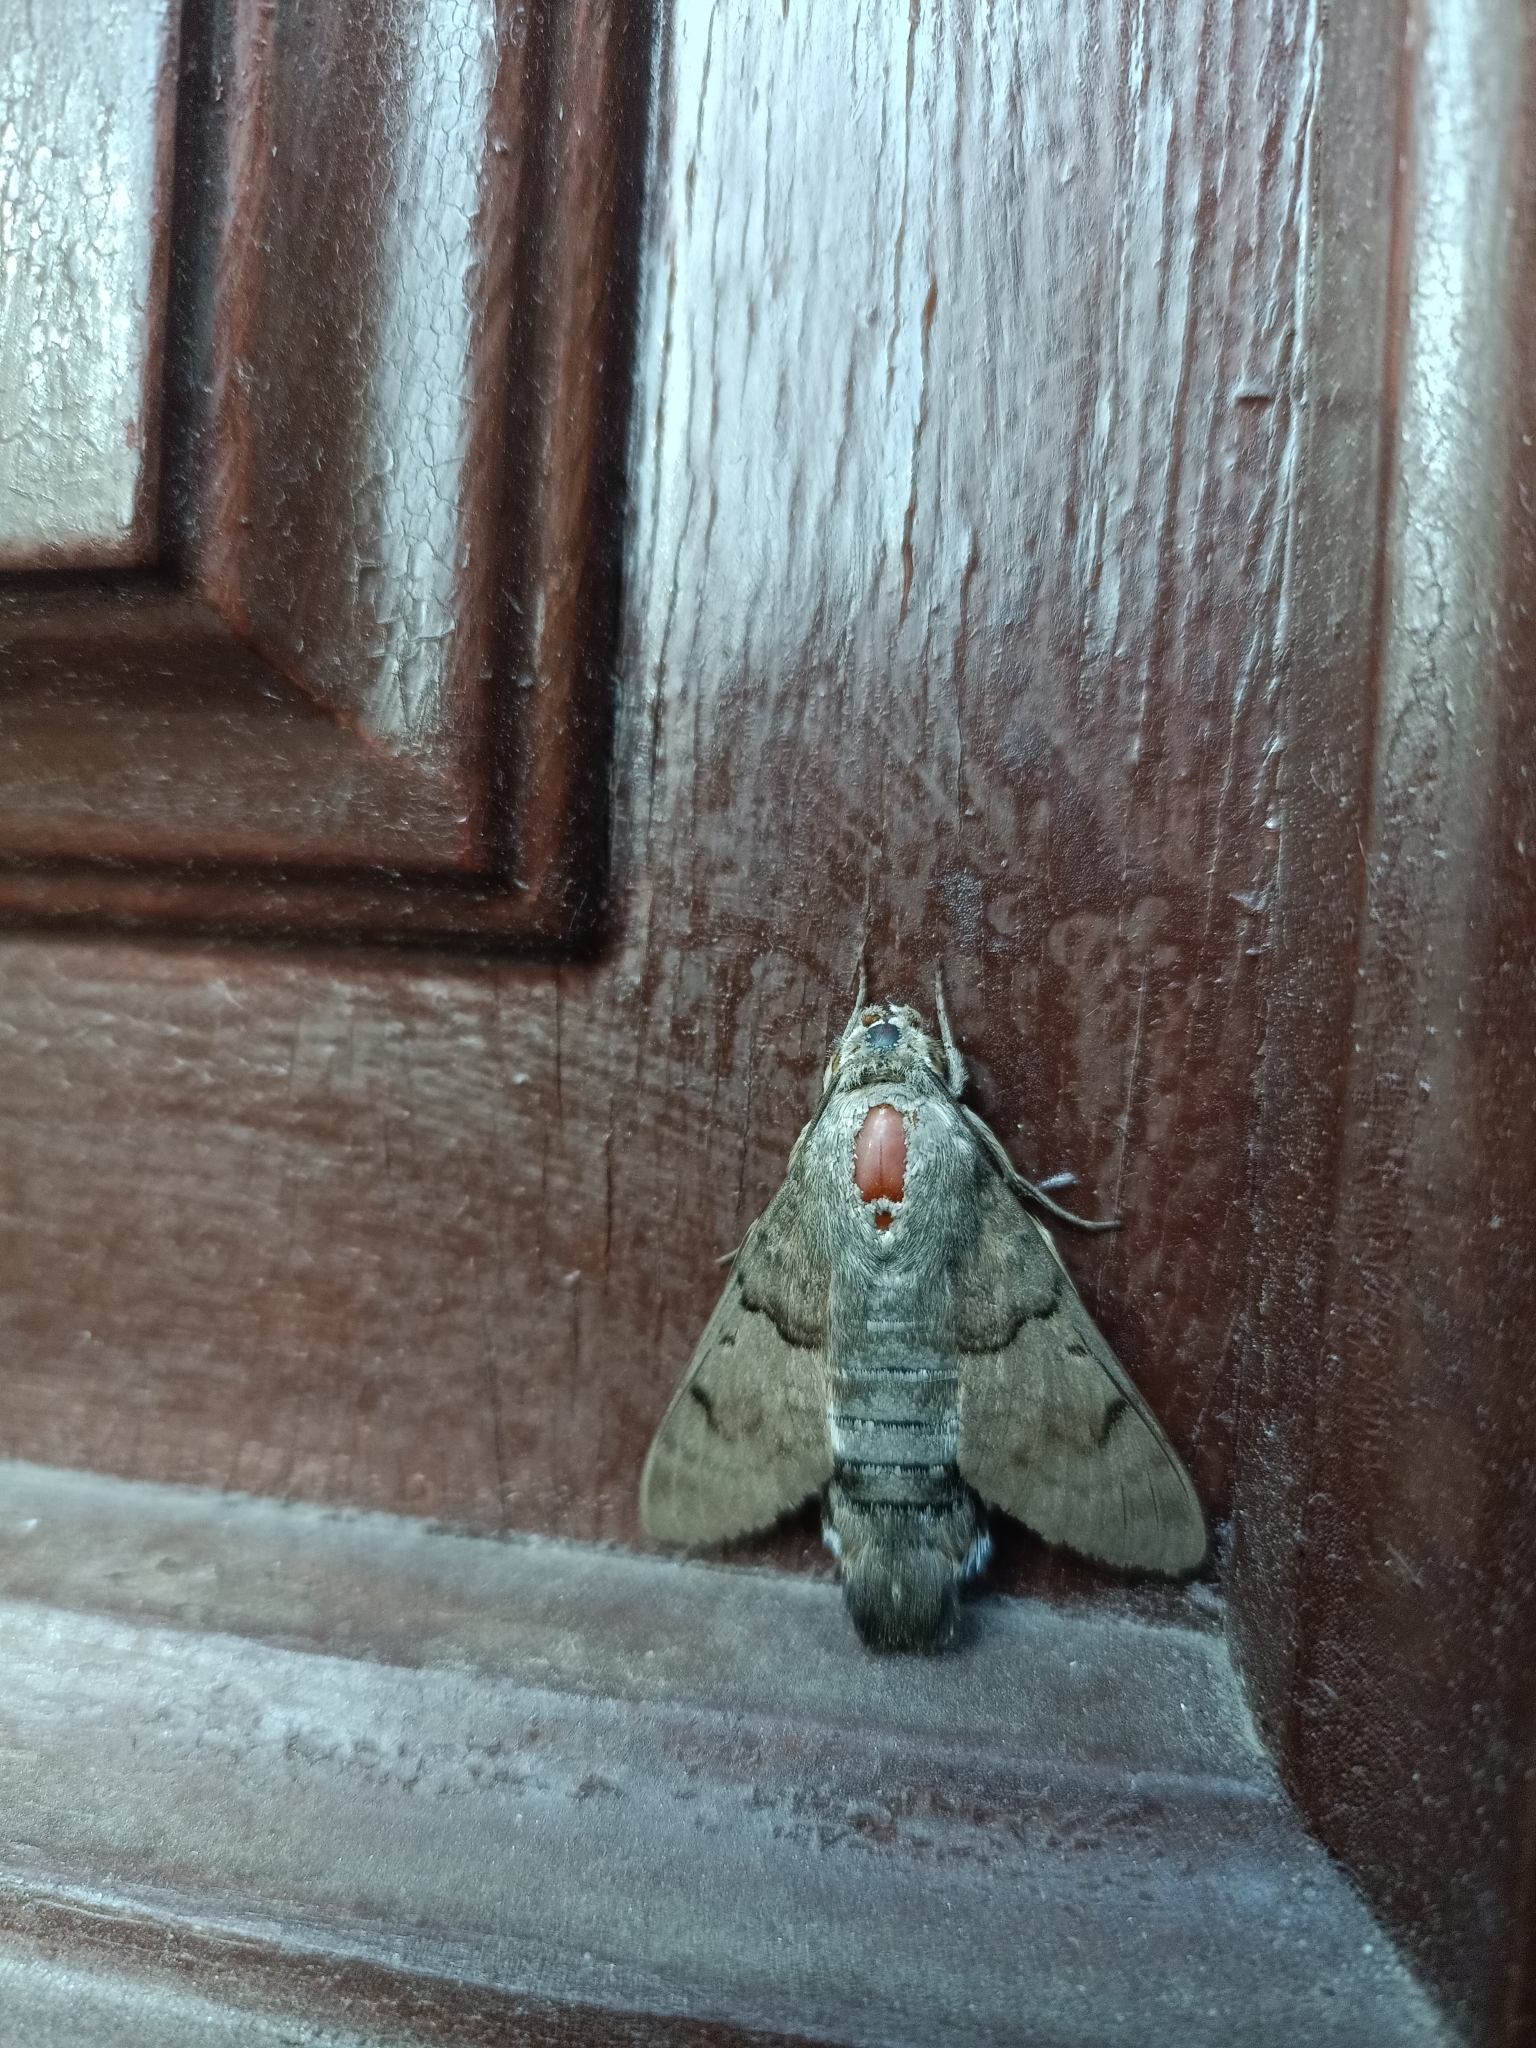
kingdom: Animalia
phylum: Arthropoda
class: Insecta
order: Lepidoptera
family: Sphingidae
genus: Macroglossum
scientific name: Macroglossum stellatarum
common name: Humming-bird hawk-moth
